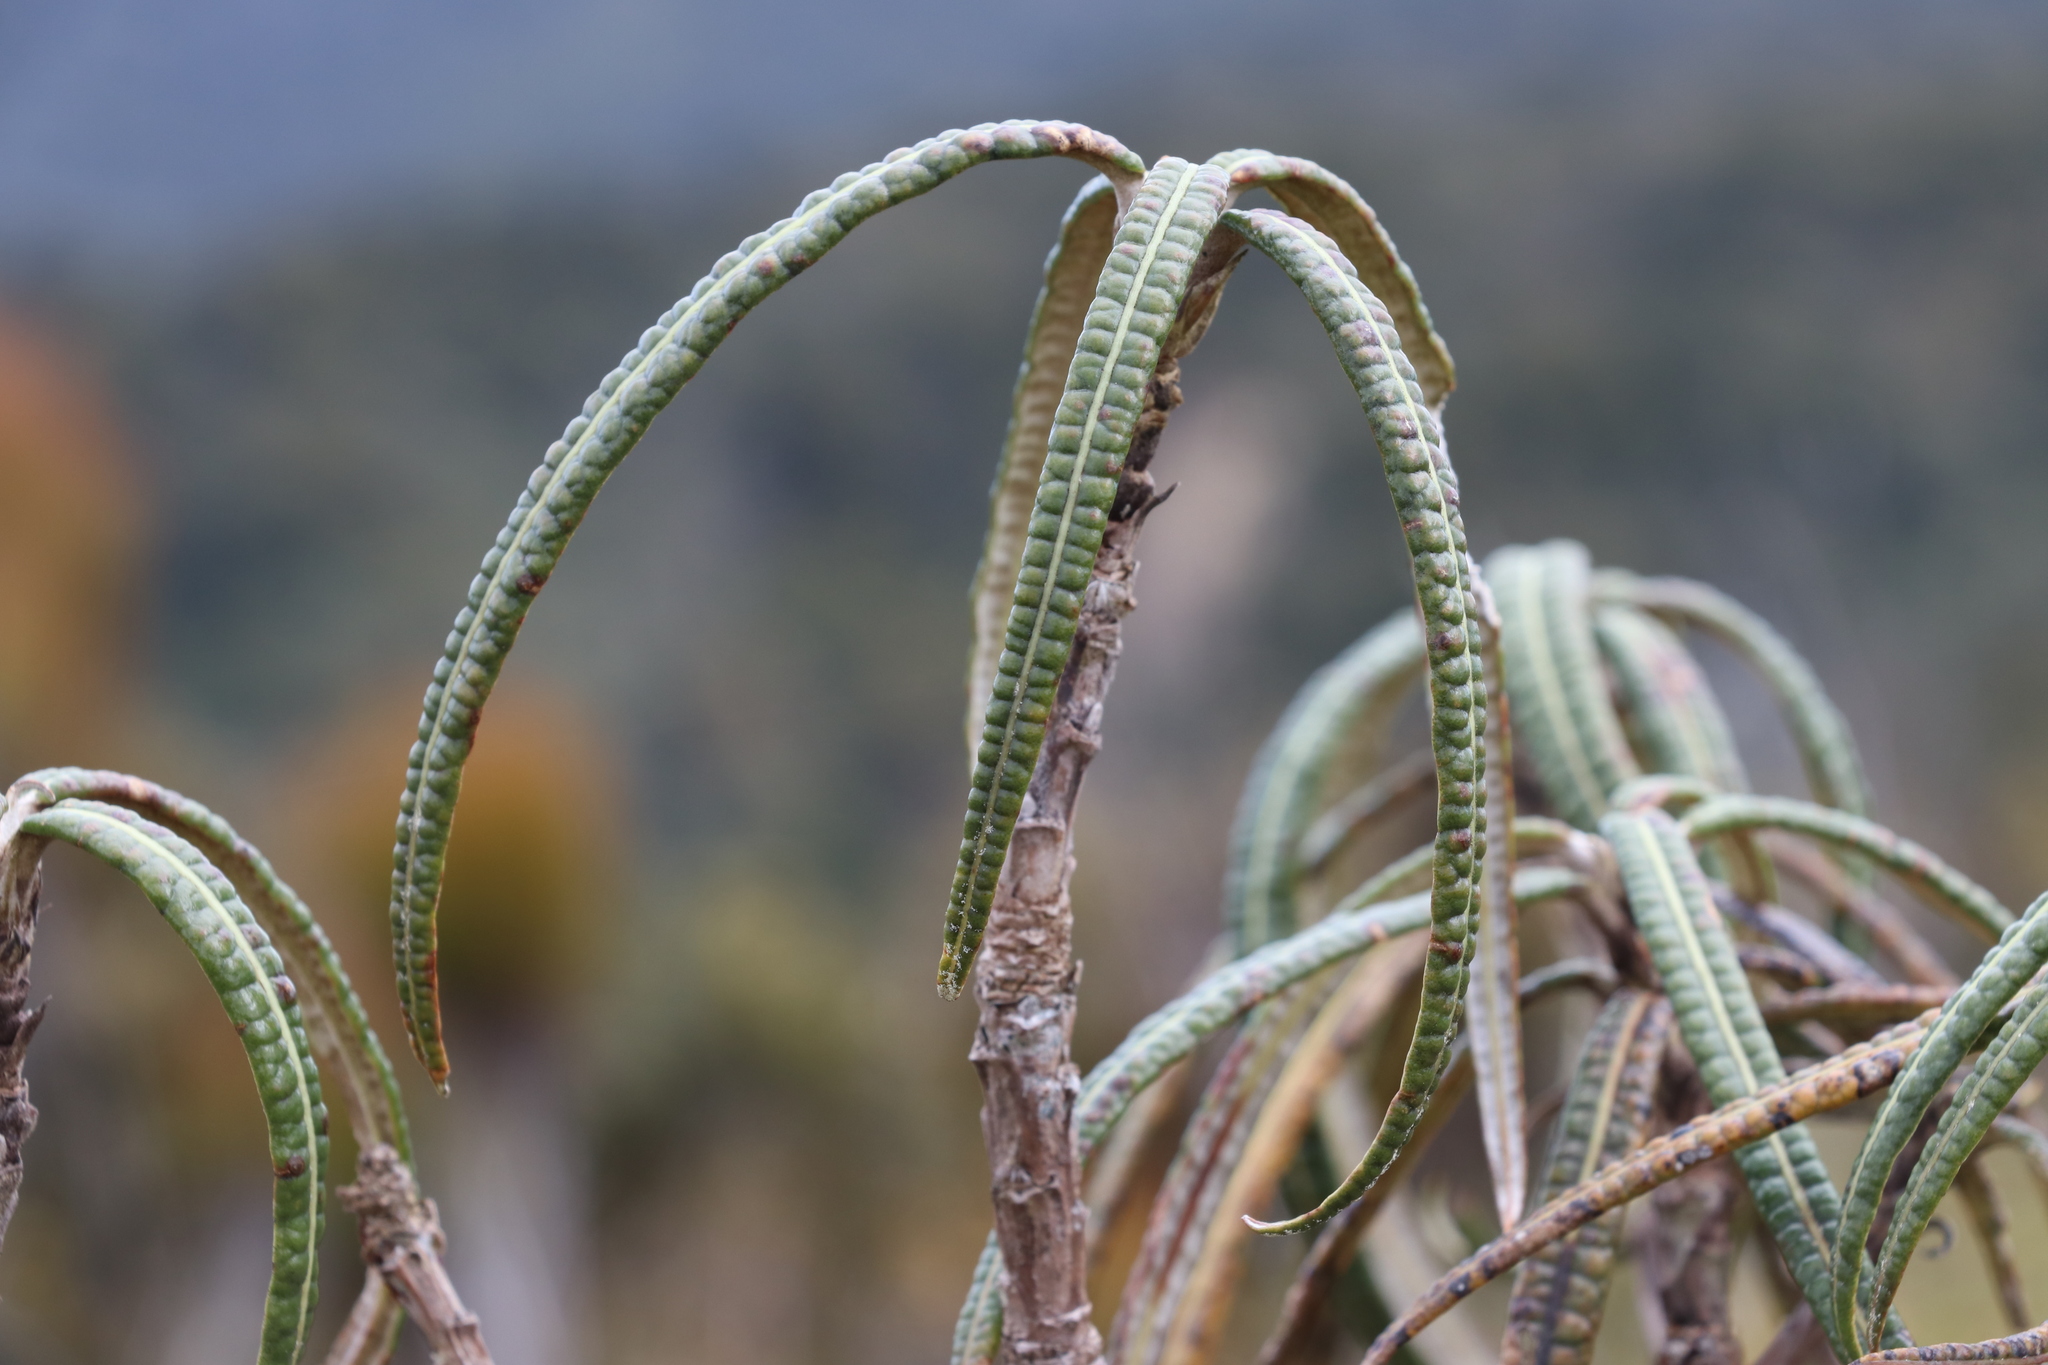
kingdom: Plantae
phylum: Tracheophyta
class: Magnoliopsida
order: Asterales
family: Asteraceae
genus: Olearia
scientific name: Olearia lacunosa
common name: Lancewood tree daisy
